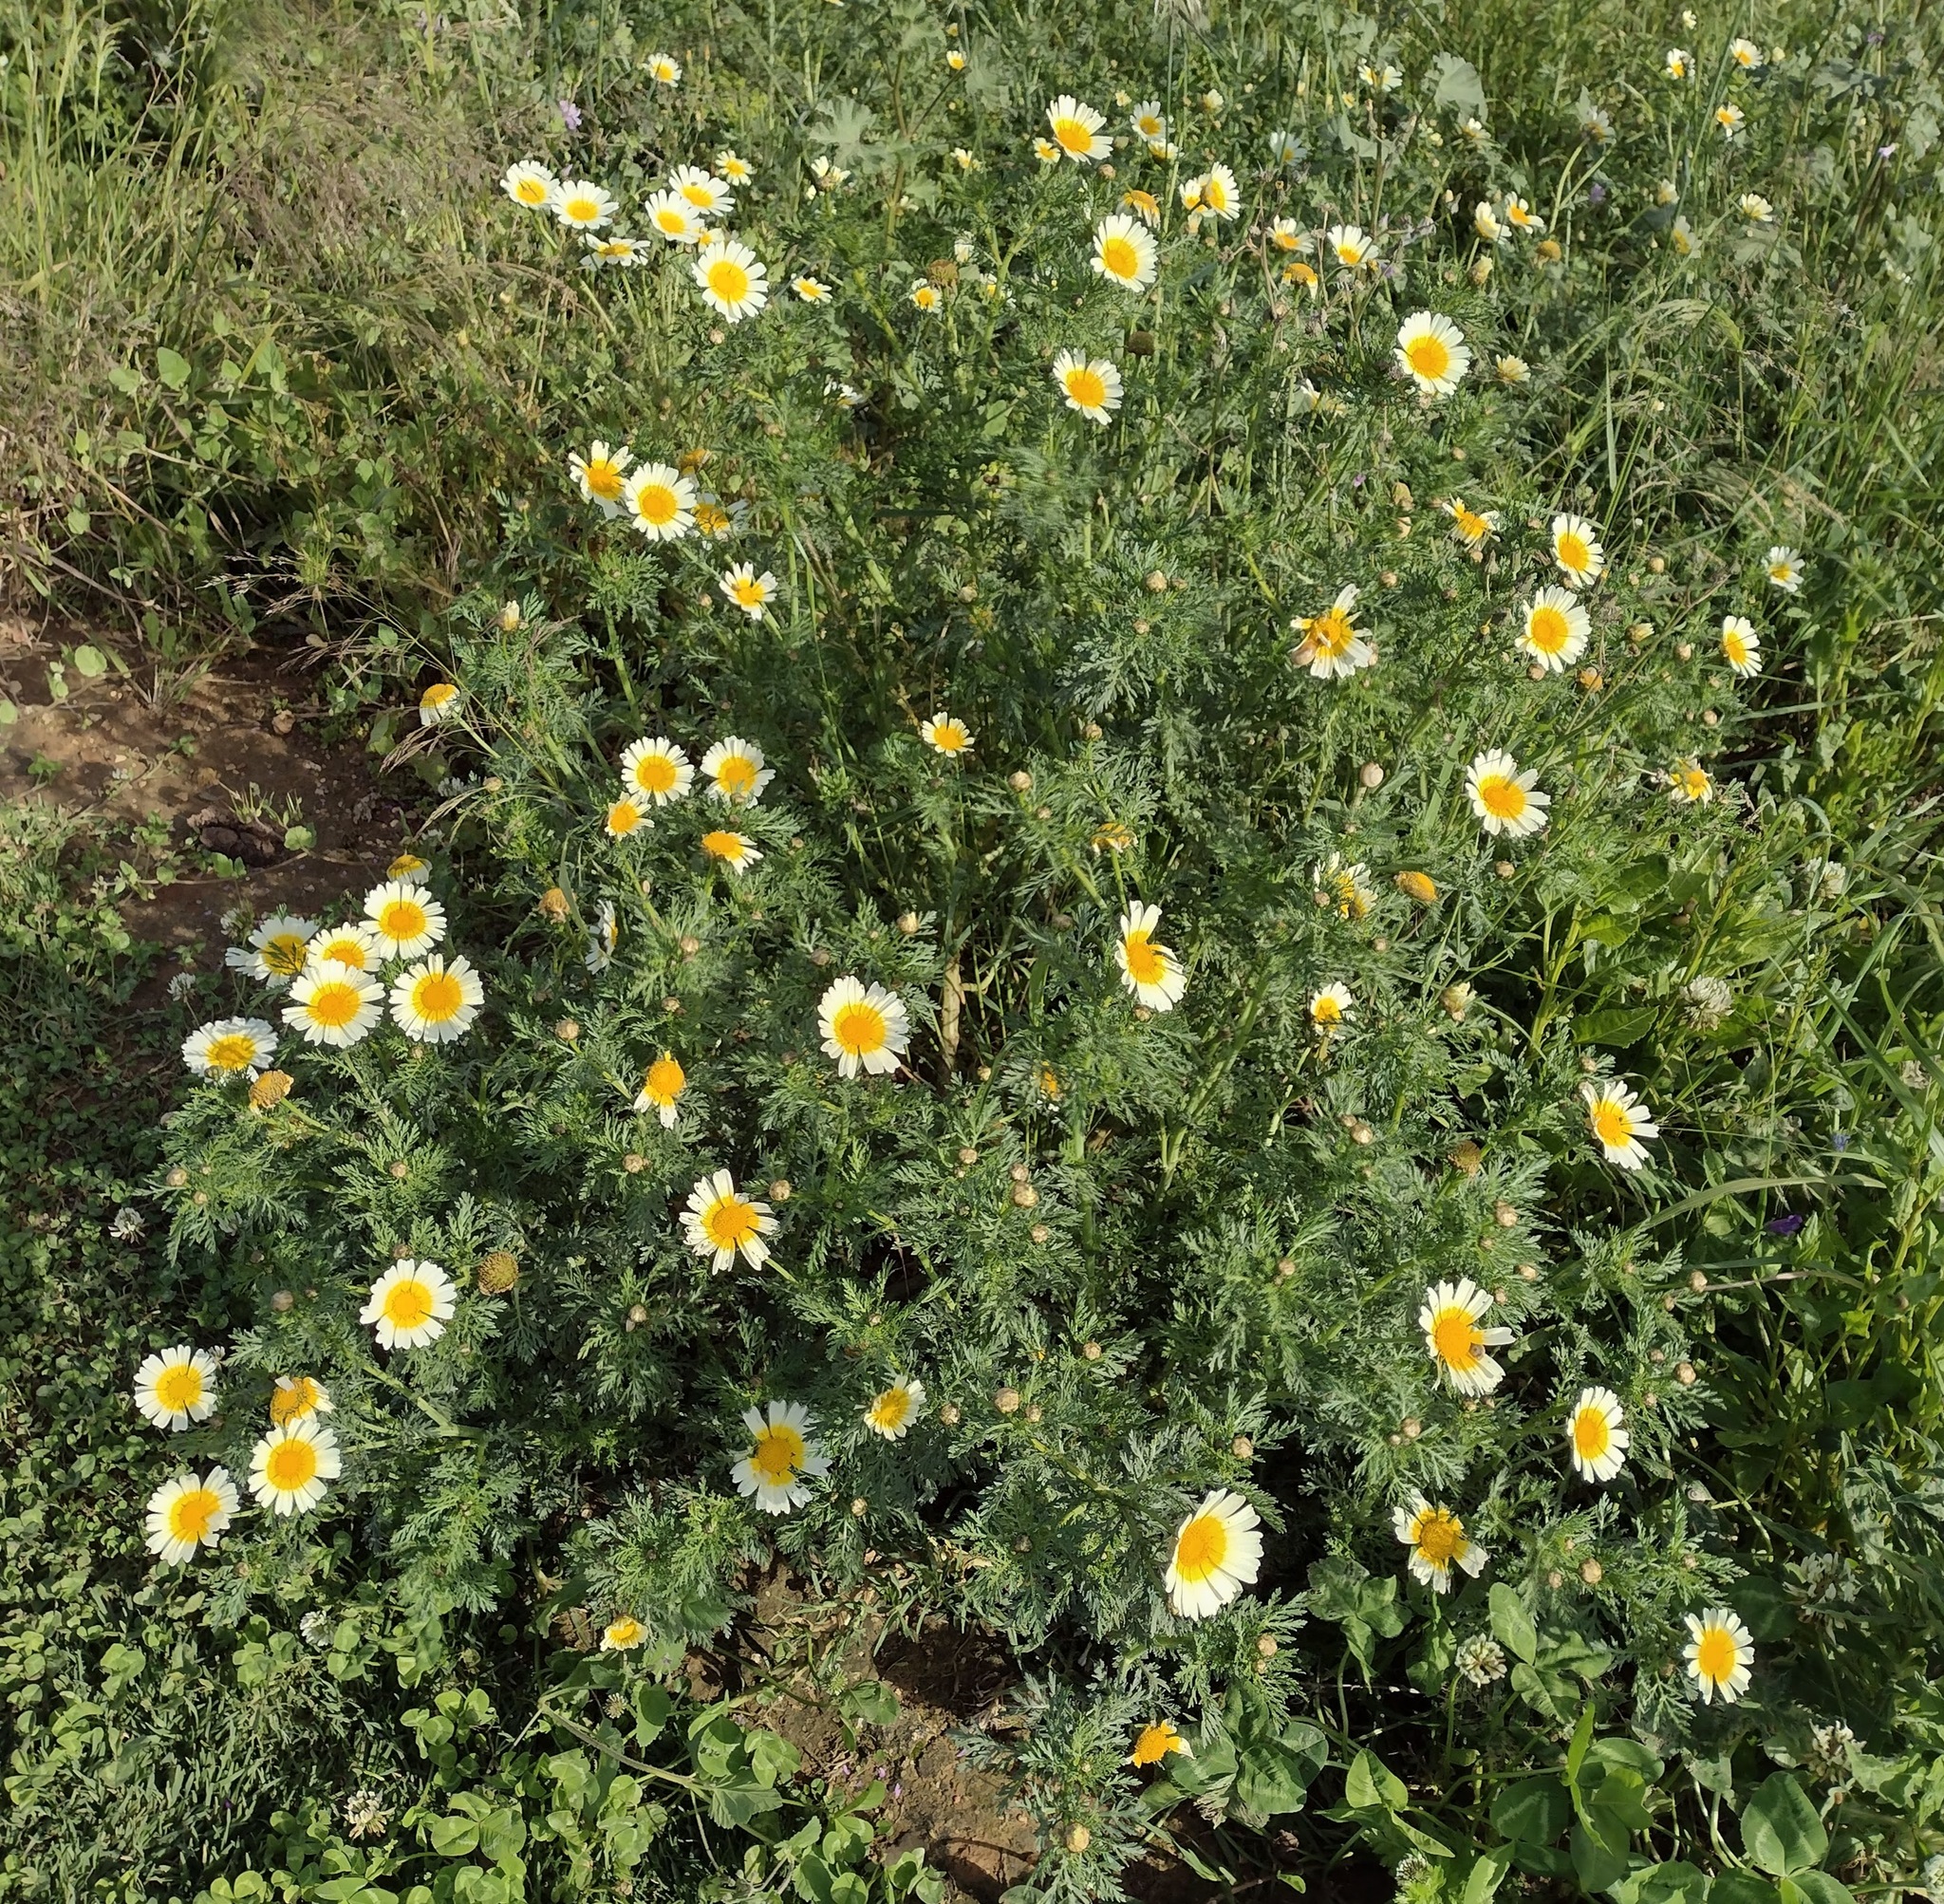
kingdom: Plantae
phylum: Tracheophyta
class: Magnoliopsida
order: Asterales
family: Asteraceae
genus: Glebionis
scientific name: Glebionis coronaria
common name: Crowndaisy
